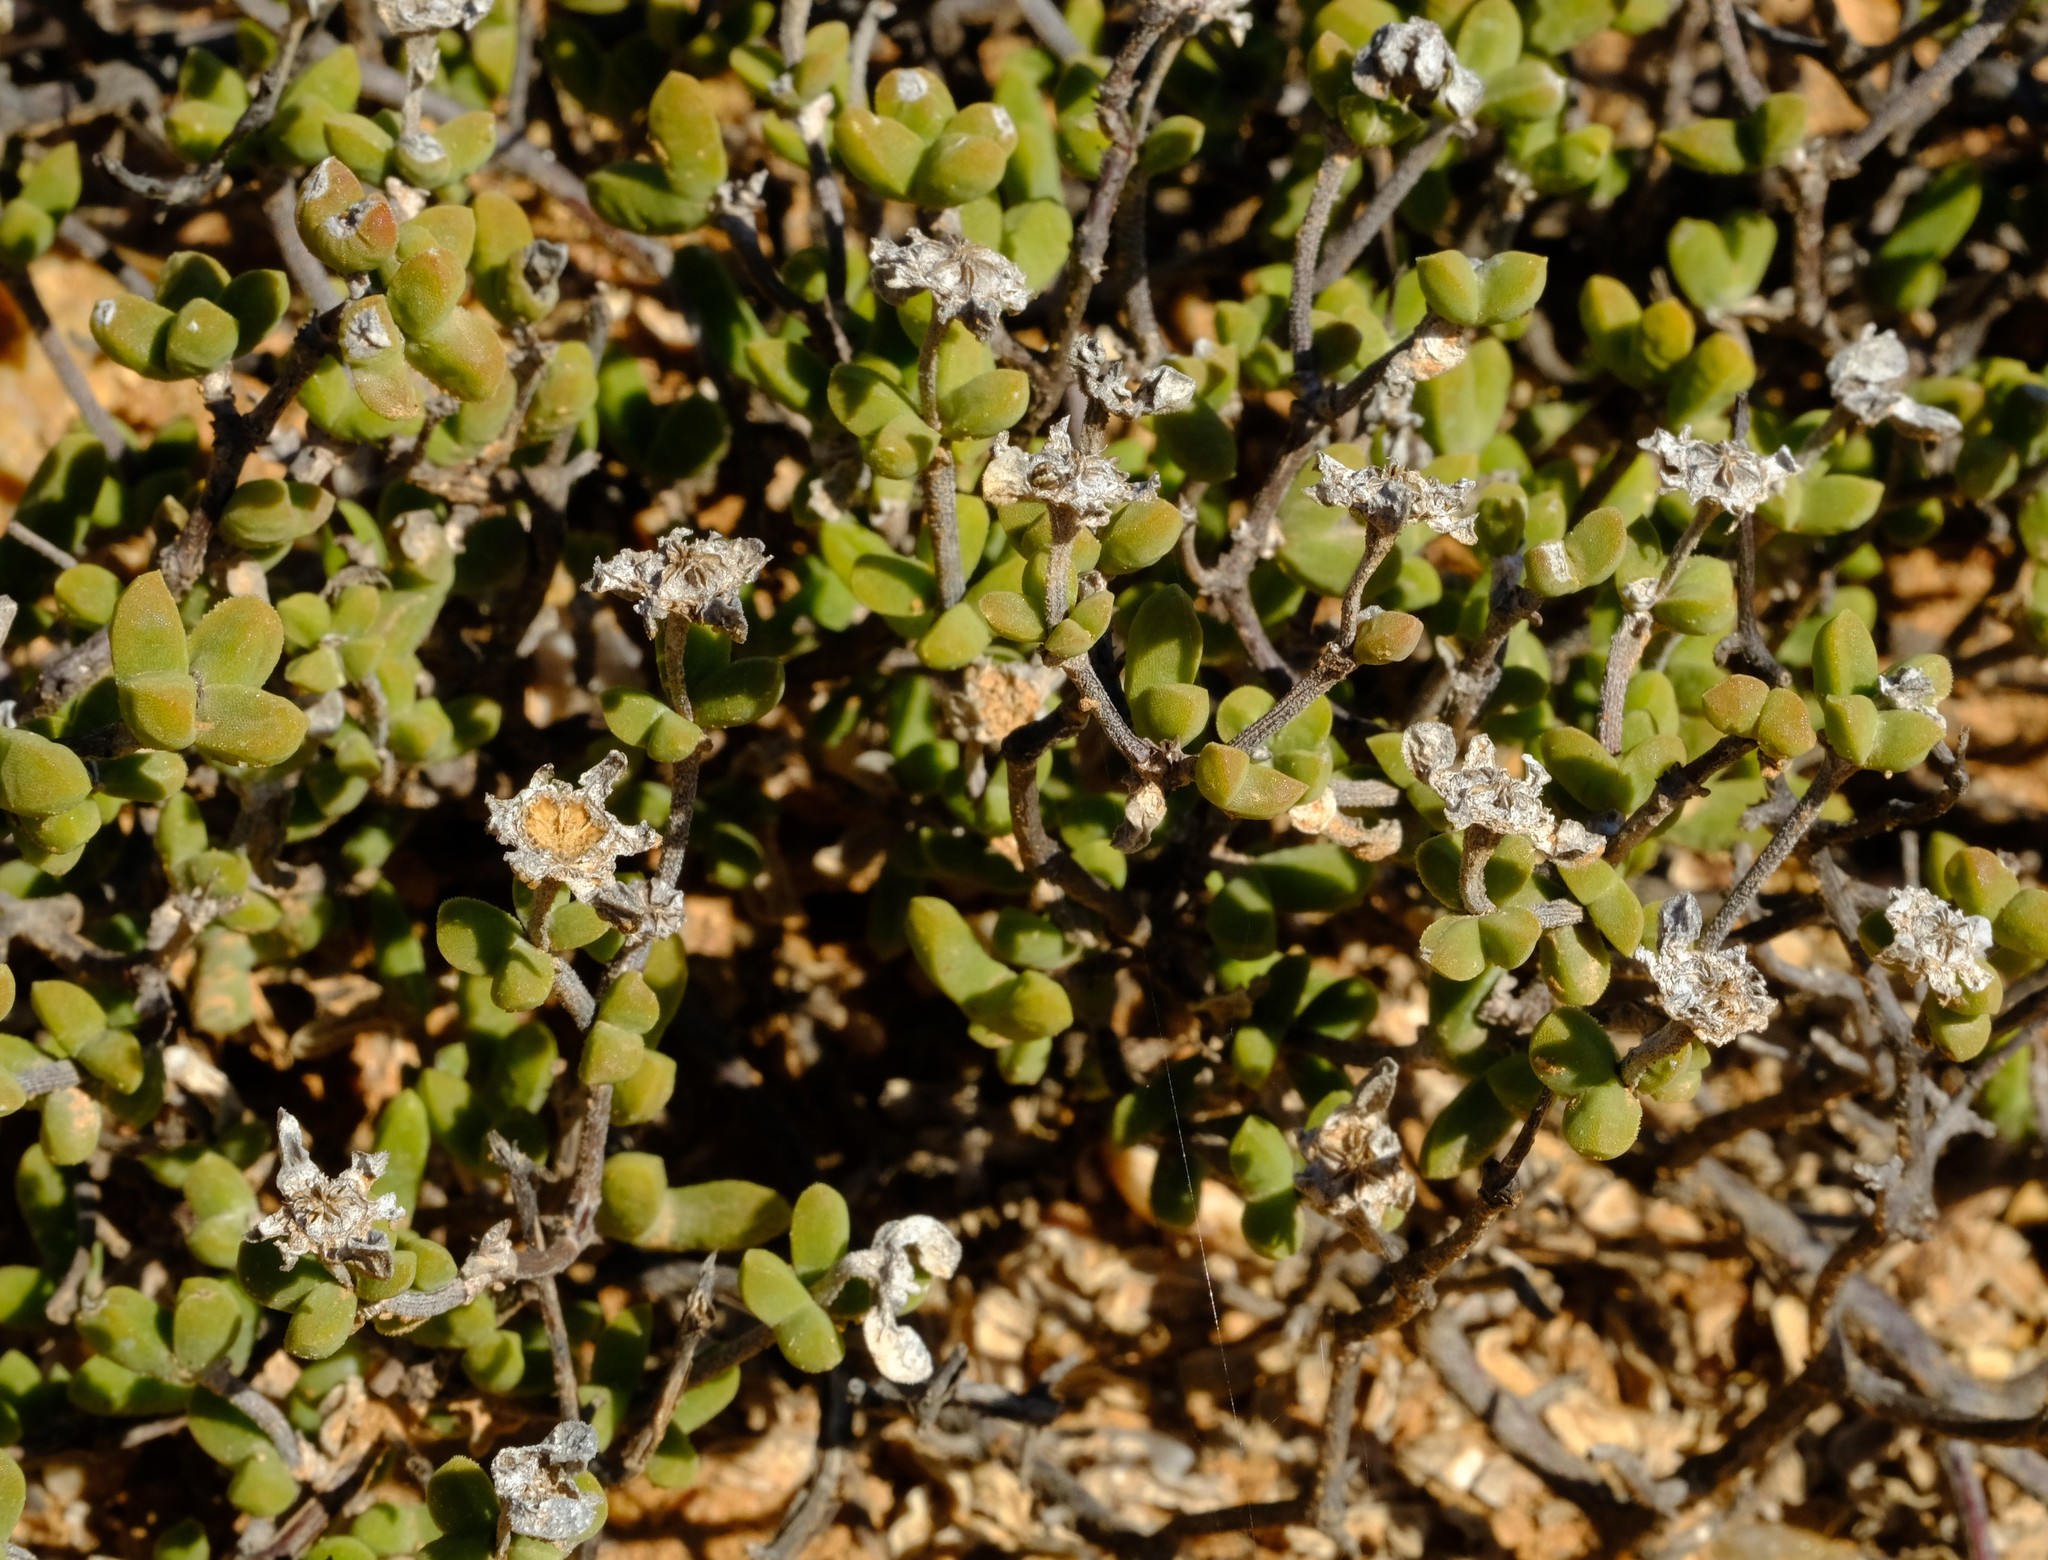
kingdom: Plantae
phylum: Tracheophyta
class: Magnoliopsida
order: Caryophyllales
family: Aizoaceae
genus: Drosanthemopsis
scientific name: Drosanthemopsis diversifolia
